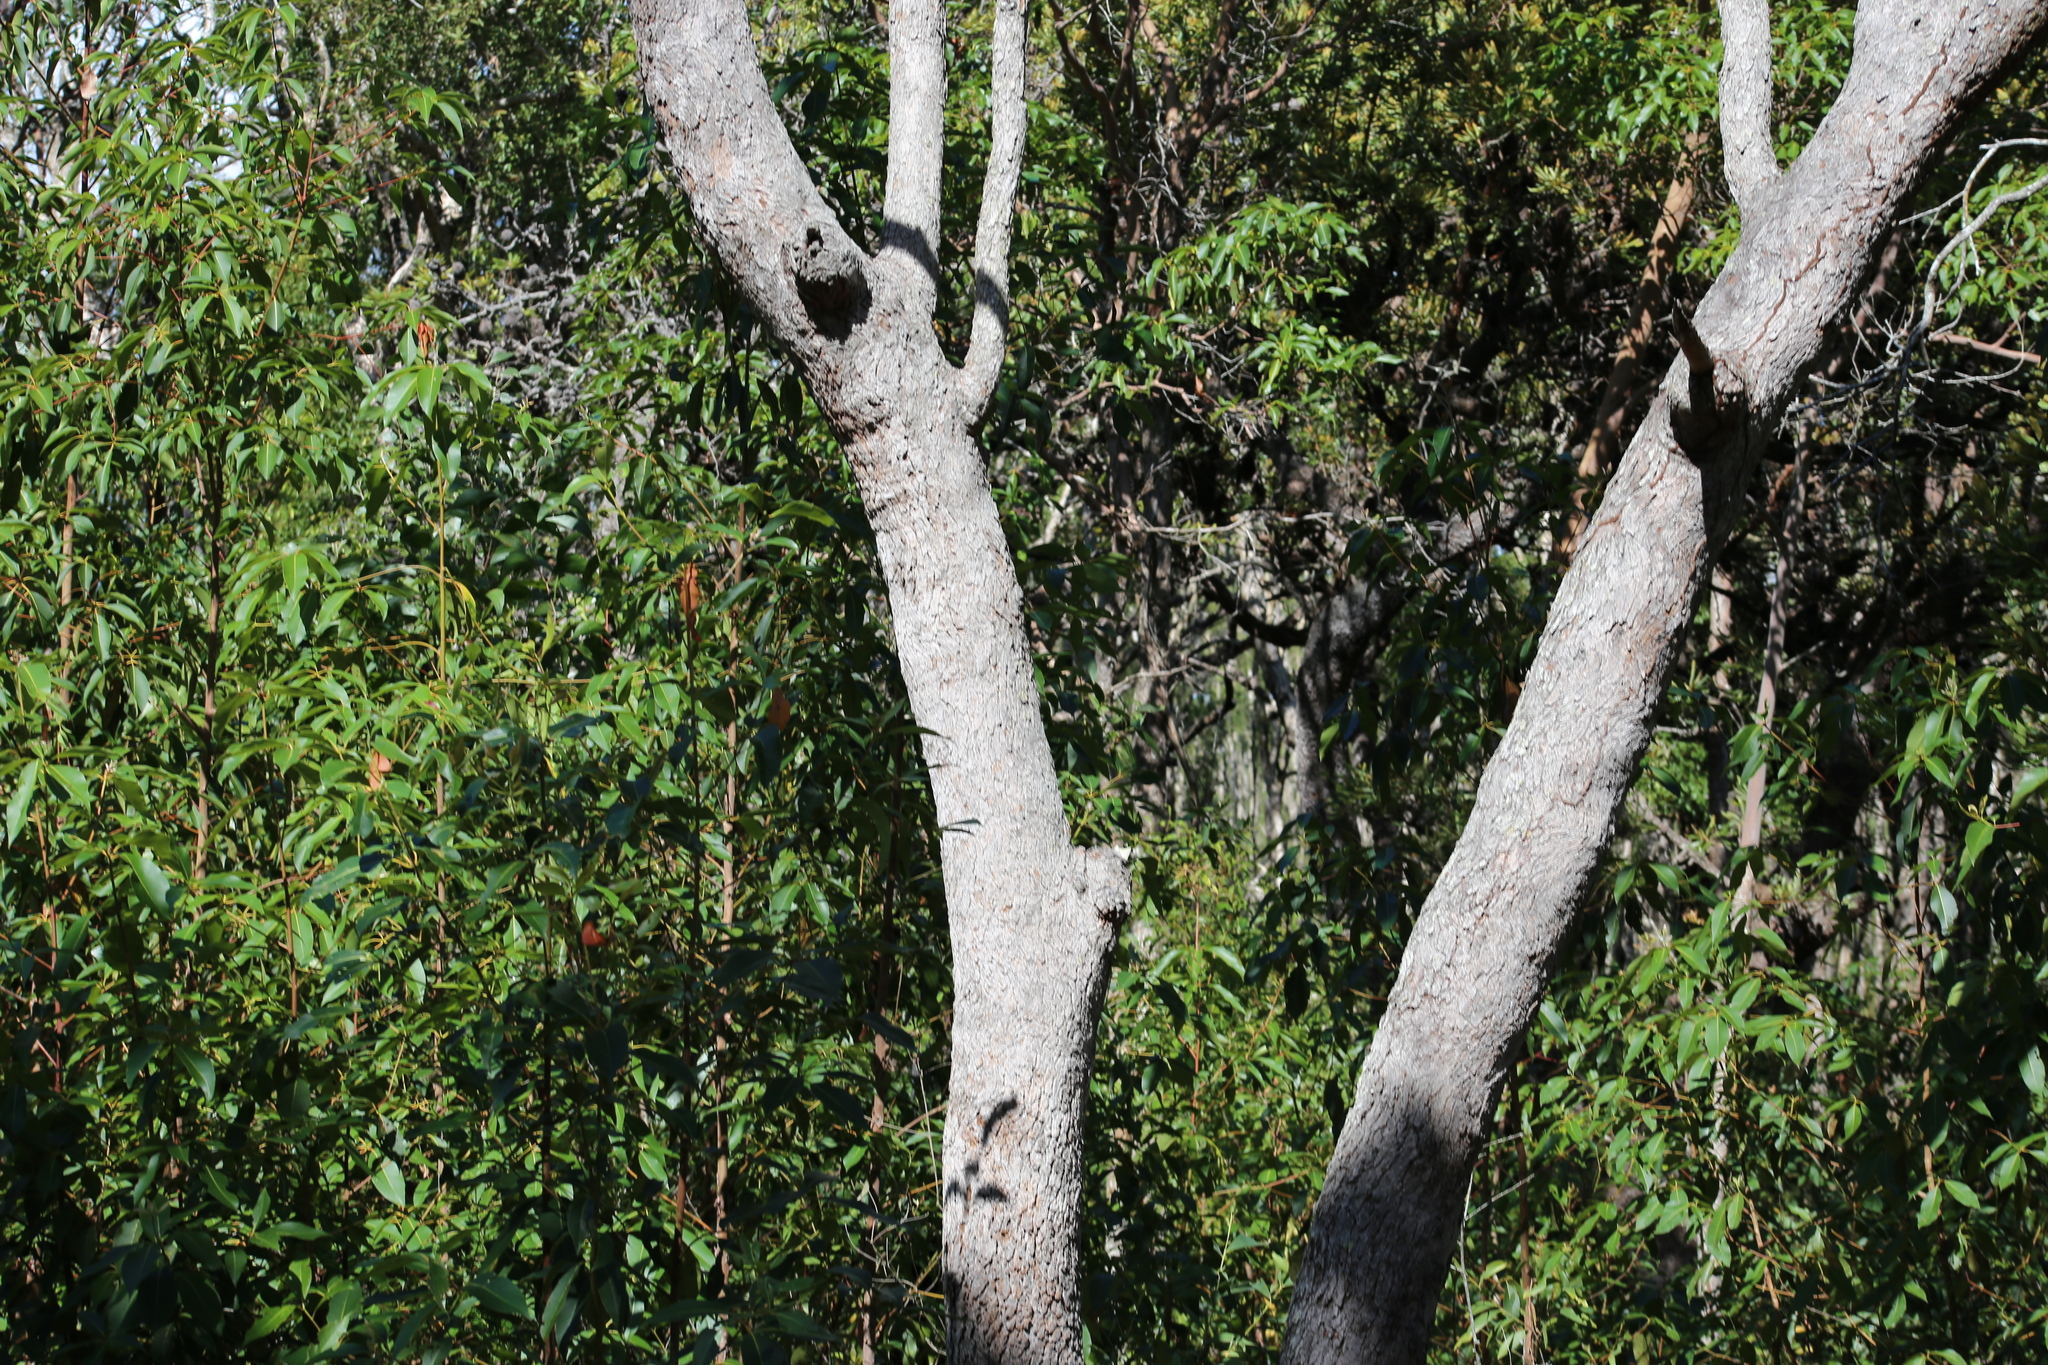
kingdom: Plantae
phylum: Tracheophyta
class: Magnoliopsida
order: Myrtales
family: Myrtaceae
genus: Corymbia
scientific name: Corymbia intermedia
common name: Pink-bloodwood
